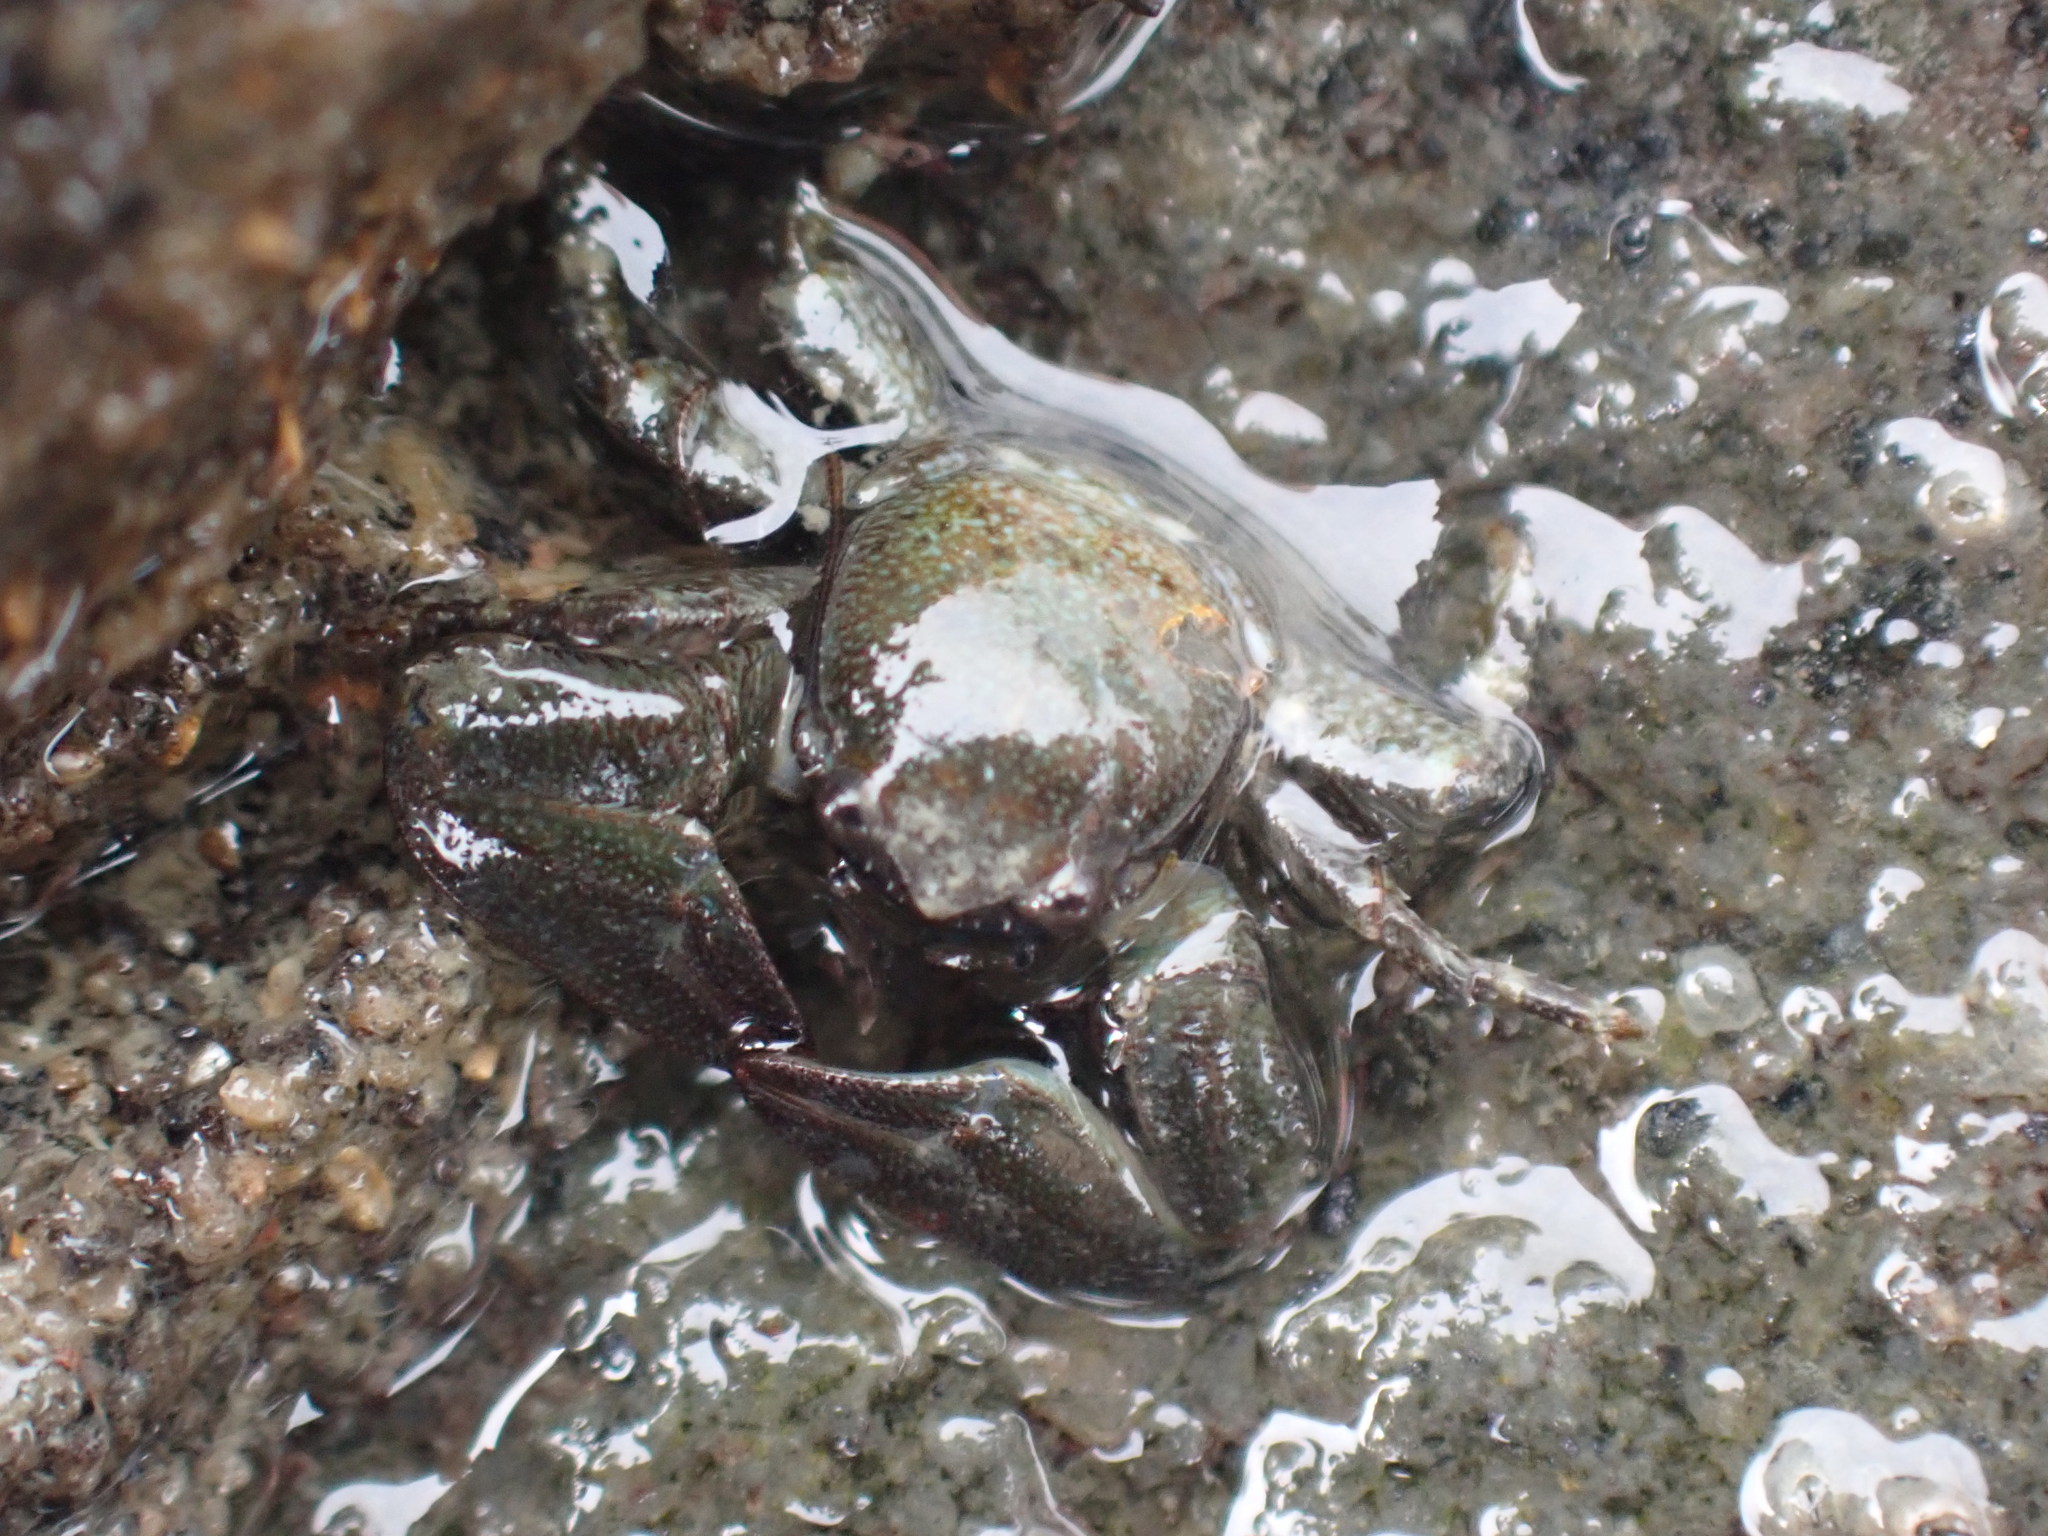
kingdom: Animalia
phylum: Arthropoda
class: Malacostraca
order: Decapoda
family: Porcellanidae
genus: Petrolisthes
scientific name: Petrolisthes elongatus
